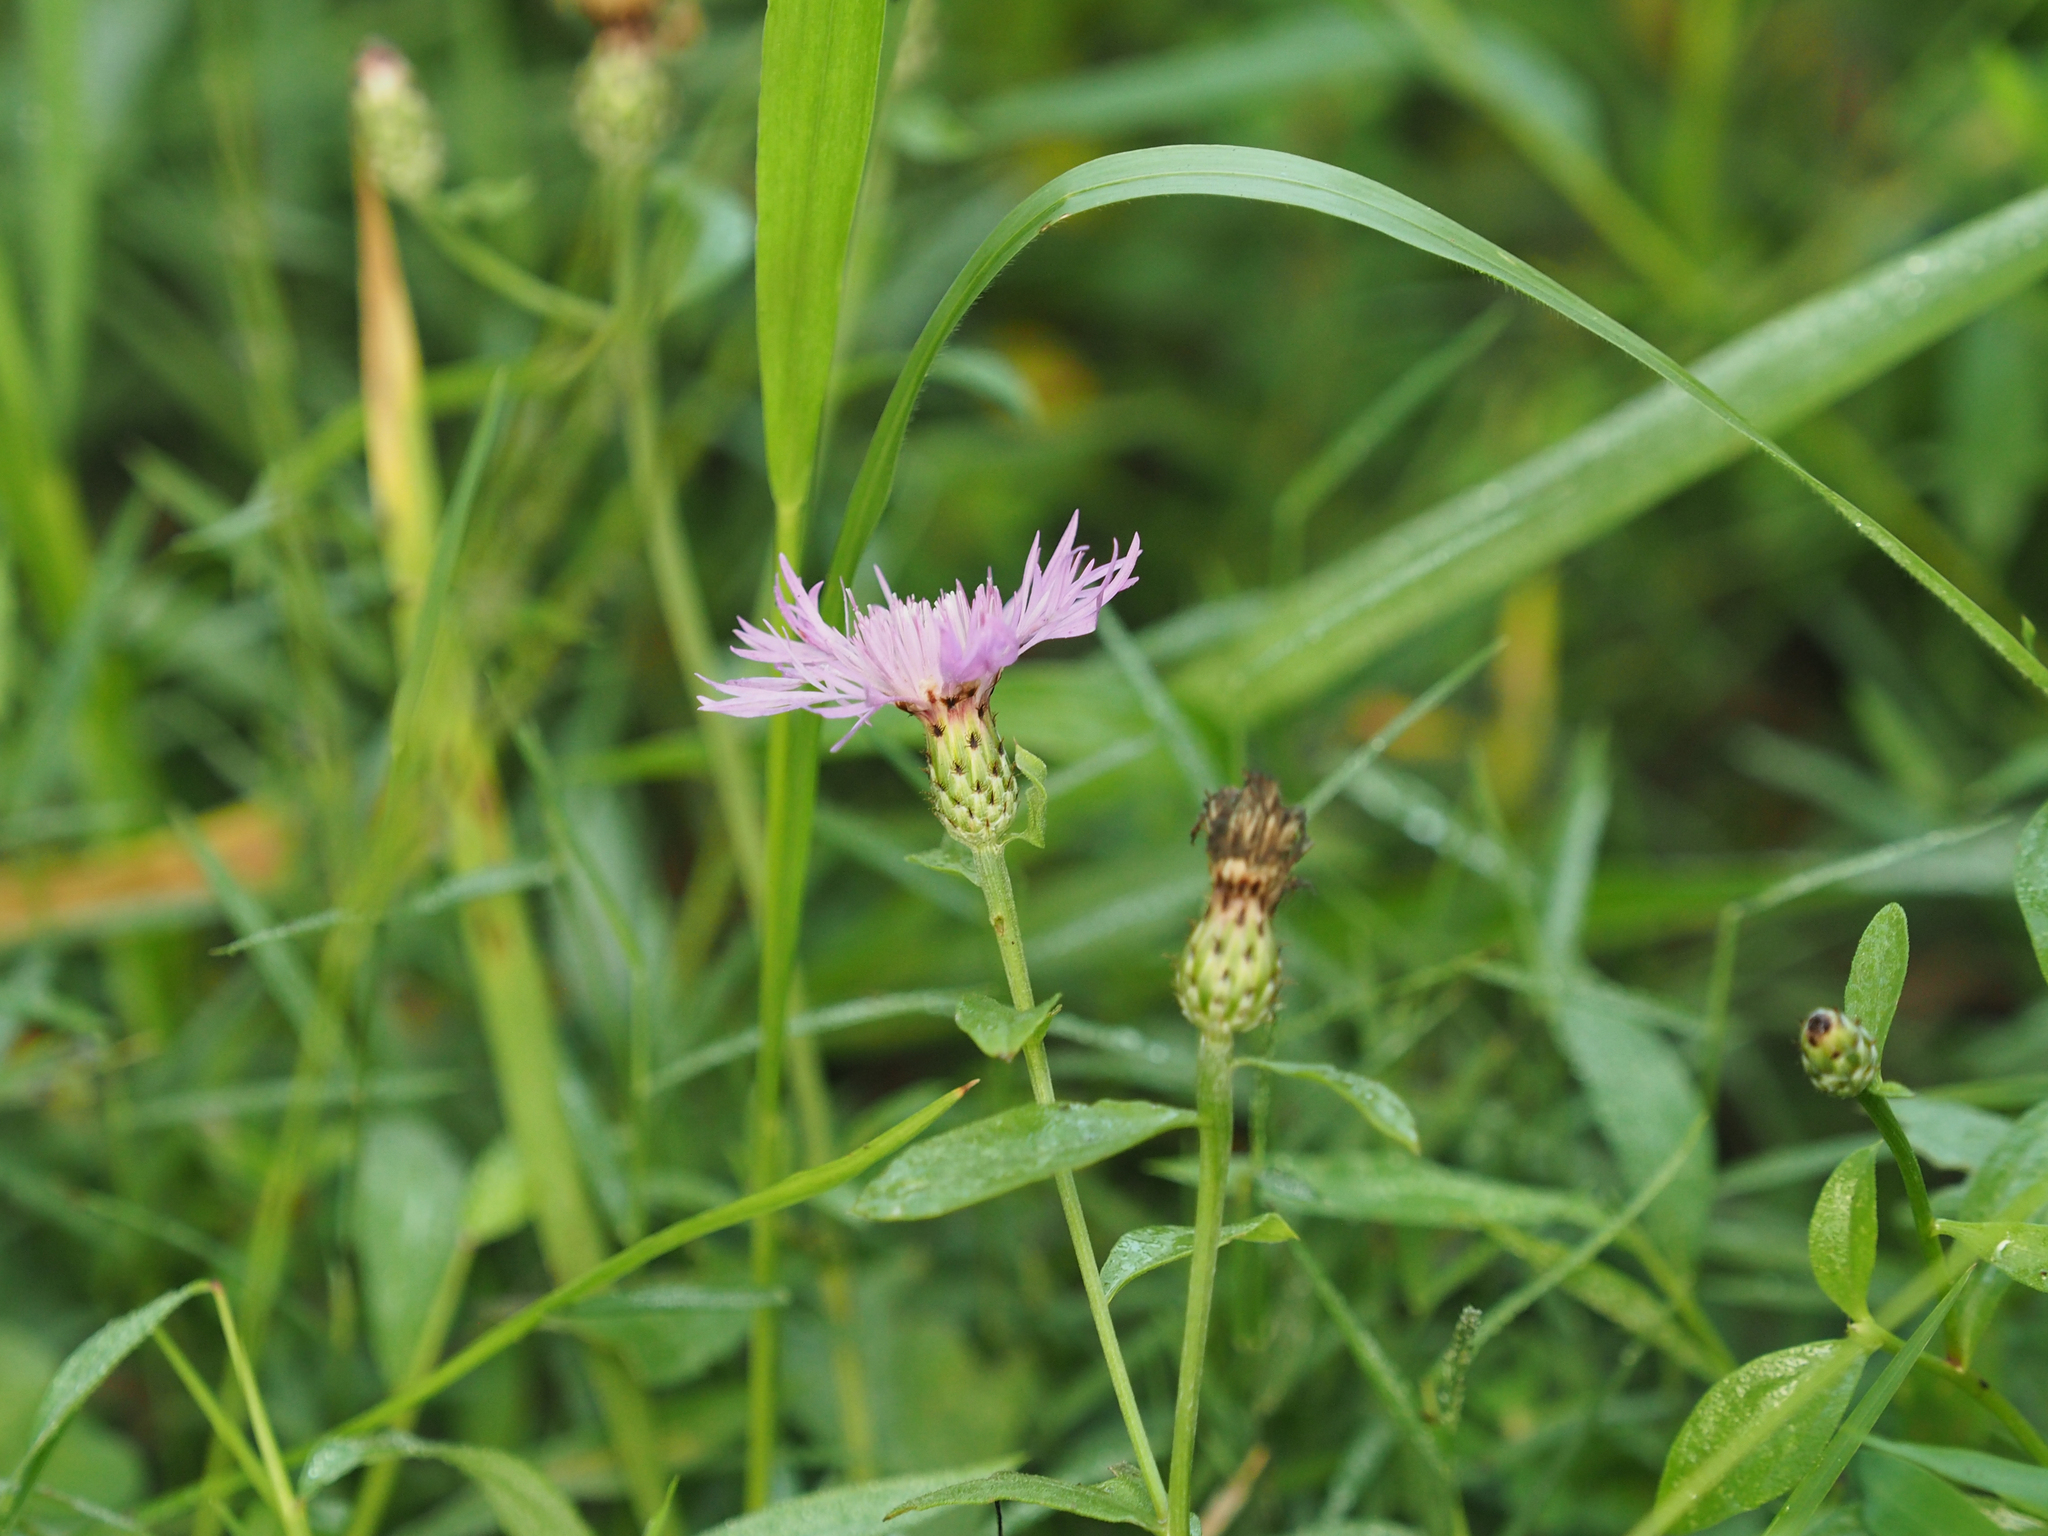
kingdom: Plantae
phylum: Tracheophyta
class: Magnoliopsida
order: Asterales
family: Asteraceae
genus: Centaurea
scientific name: Centaurea nigrescens
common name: Tyrol knapweed
